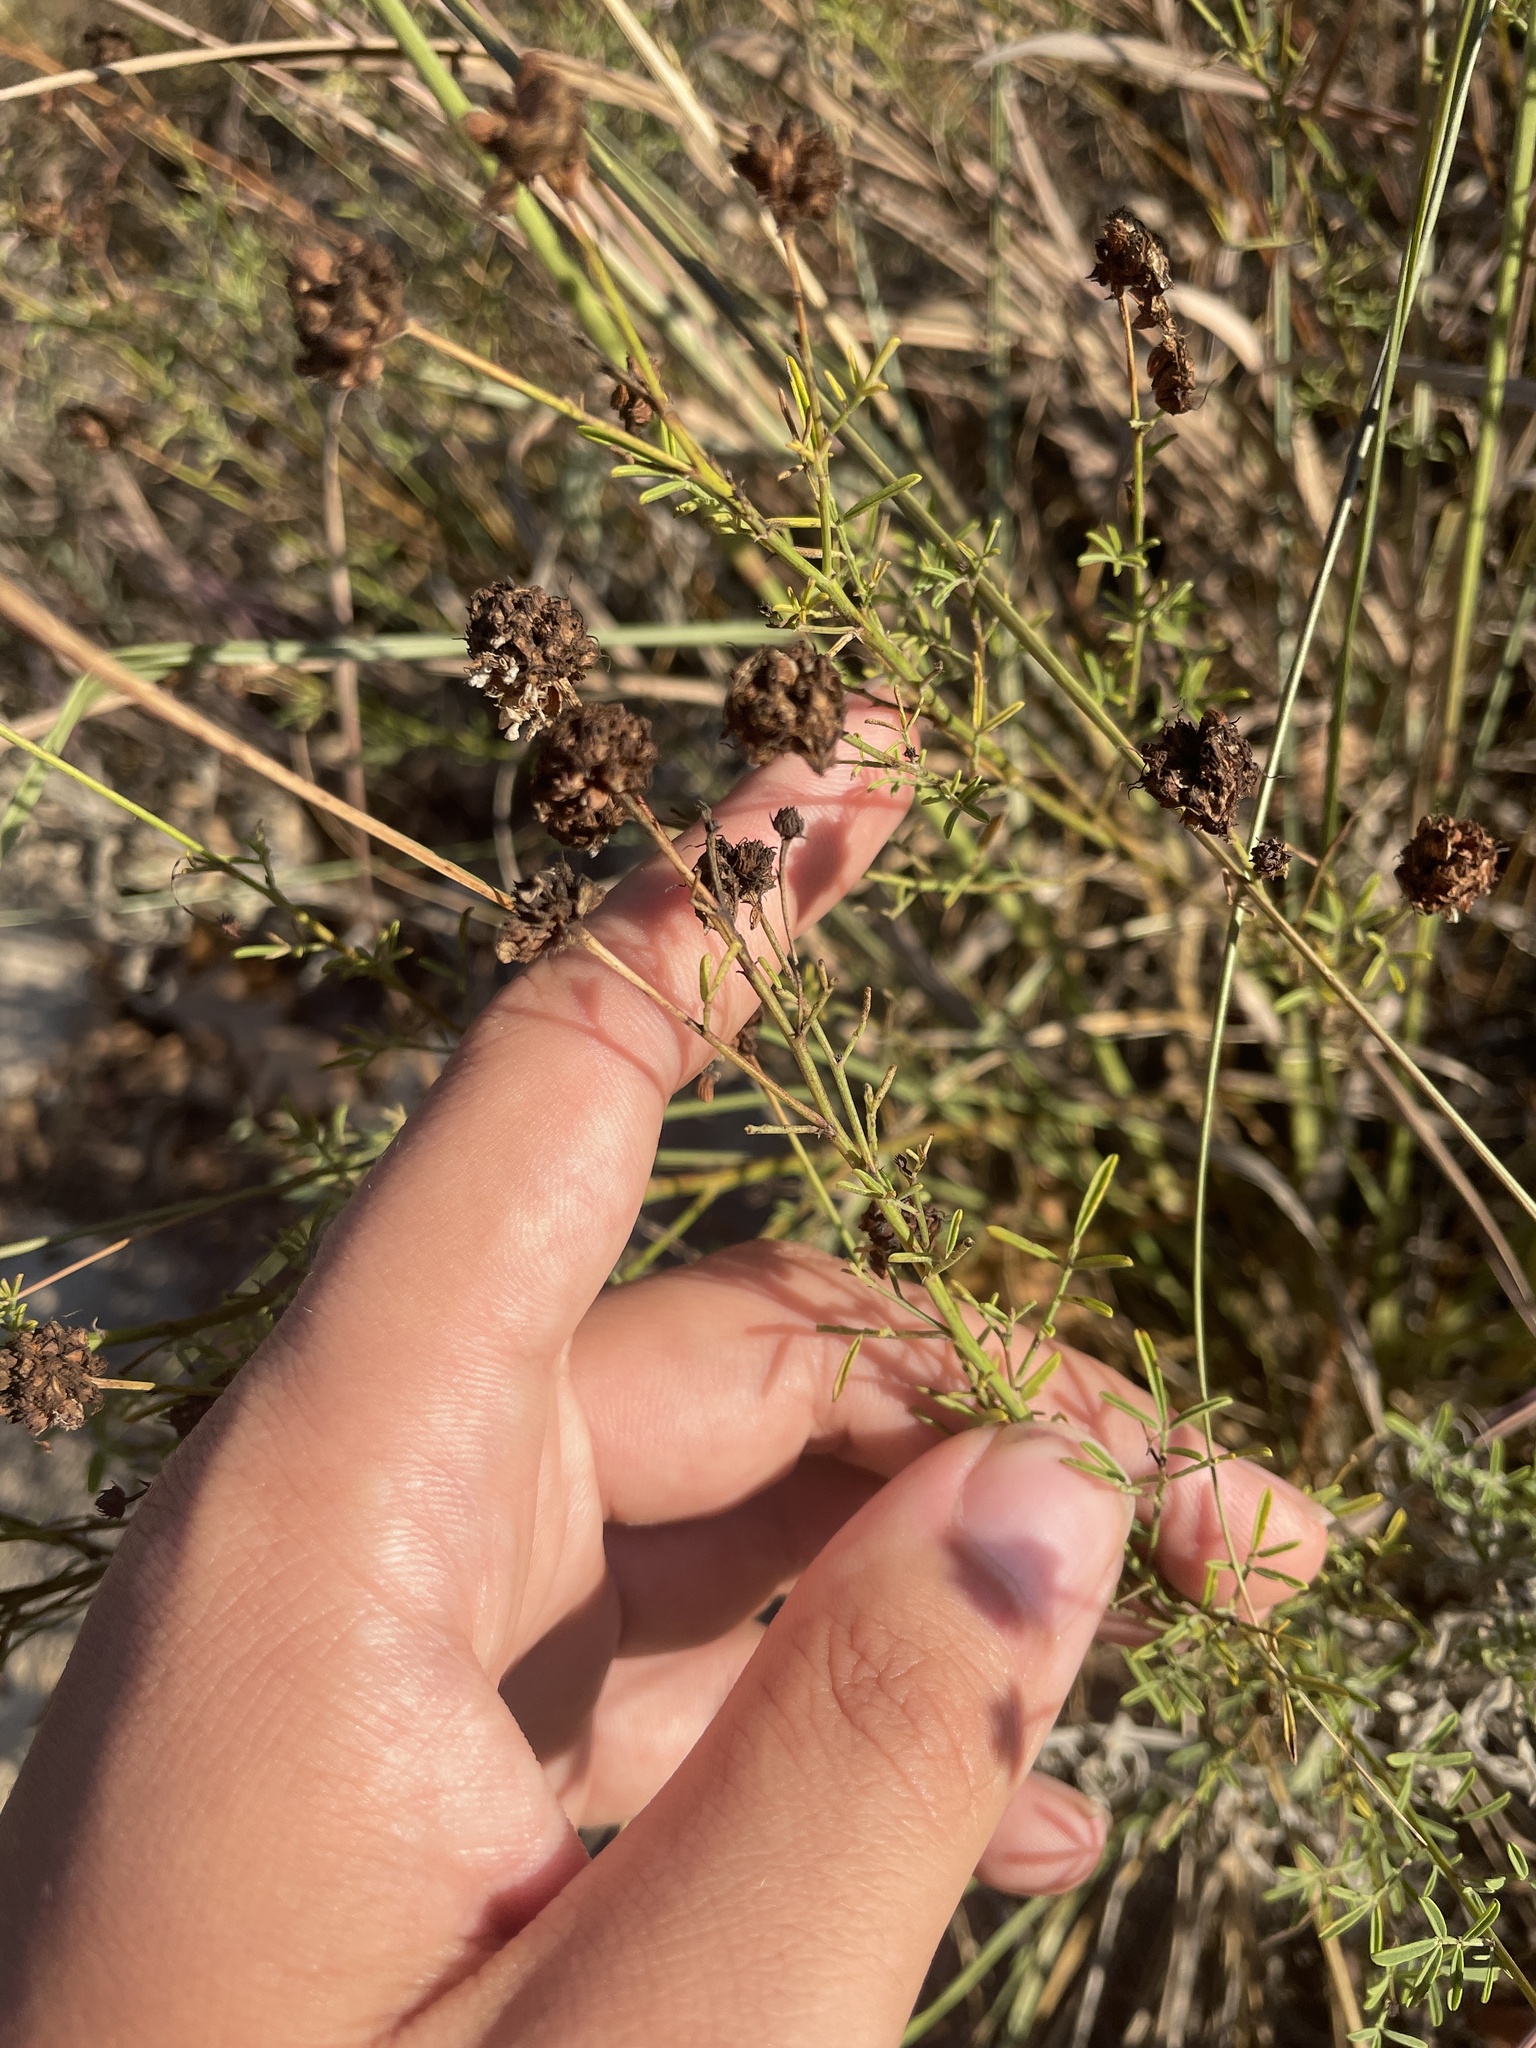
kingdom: Plantae
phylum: Tracheophyta
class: Magnoliopsida
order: Fabales
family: Fabaceae
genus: Dalea
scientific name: Dalea multiflora
